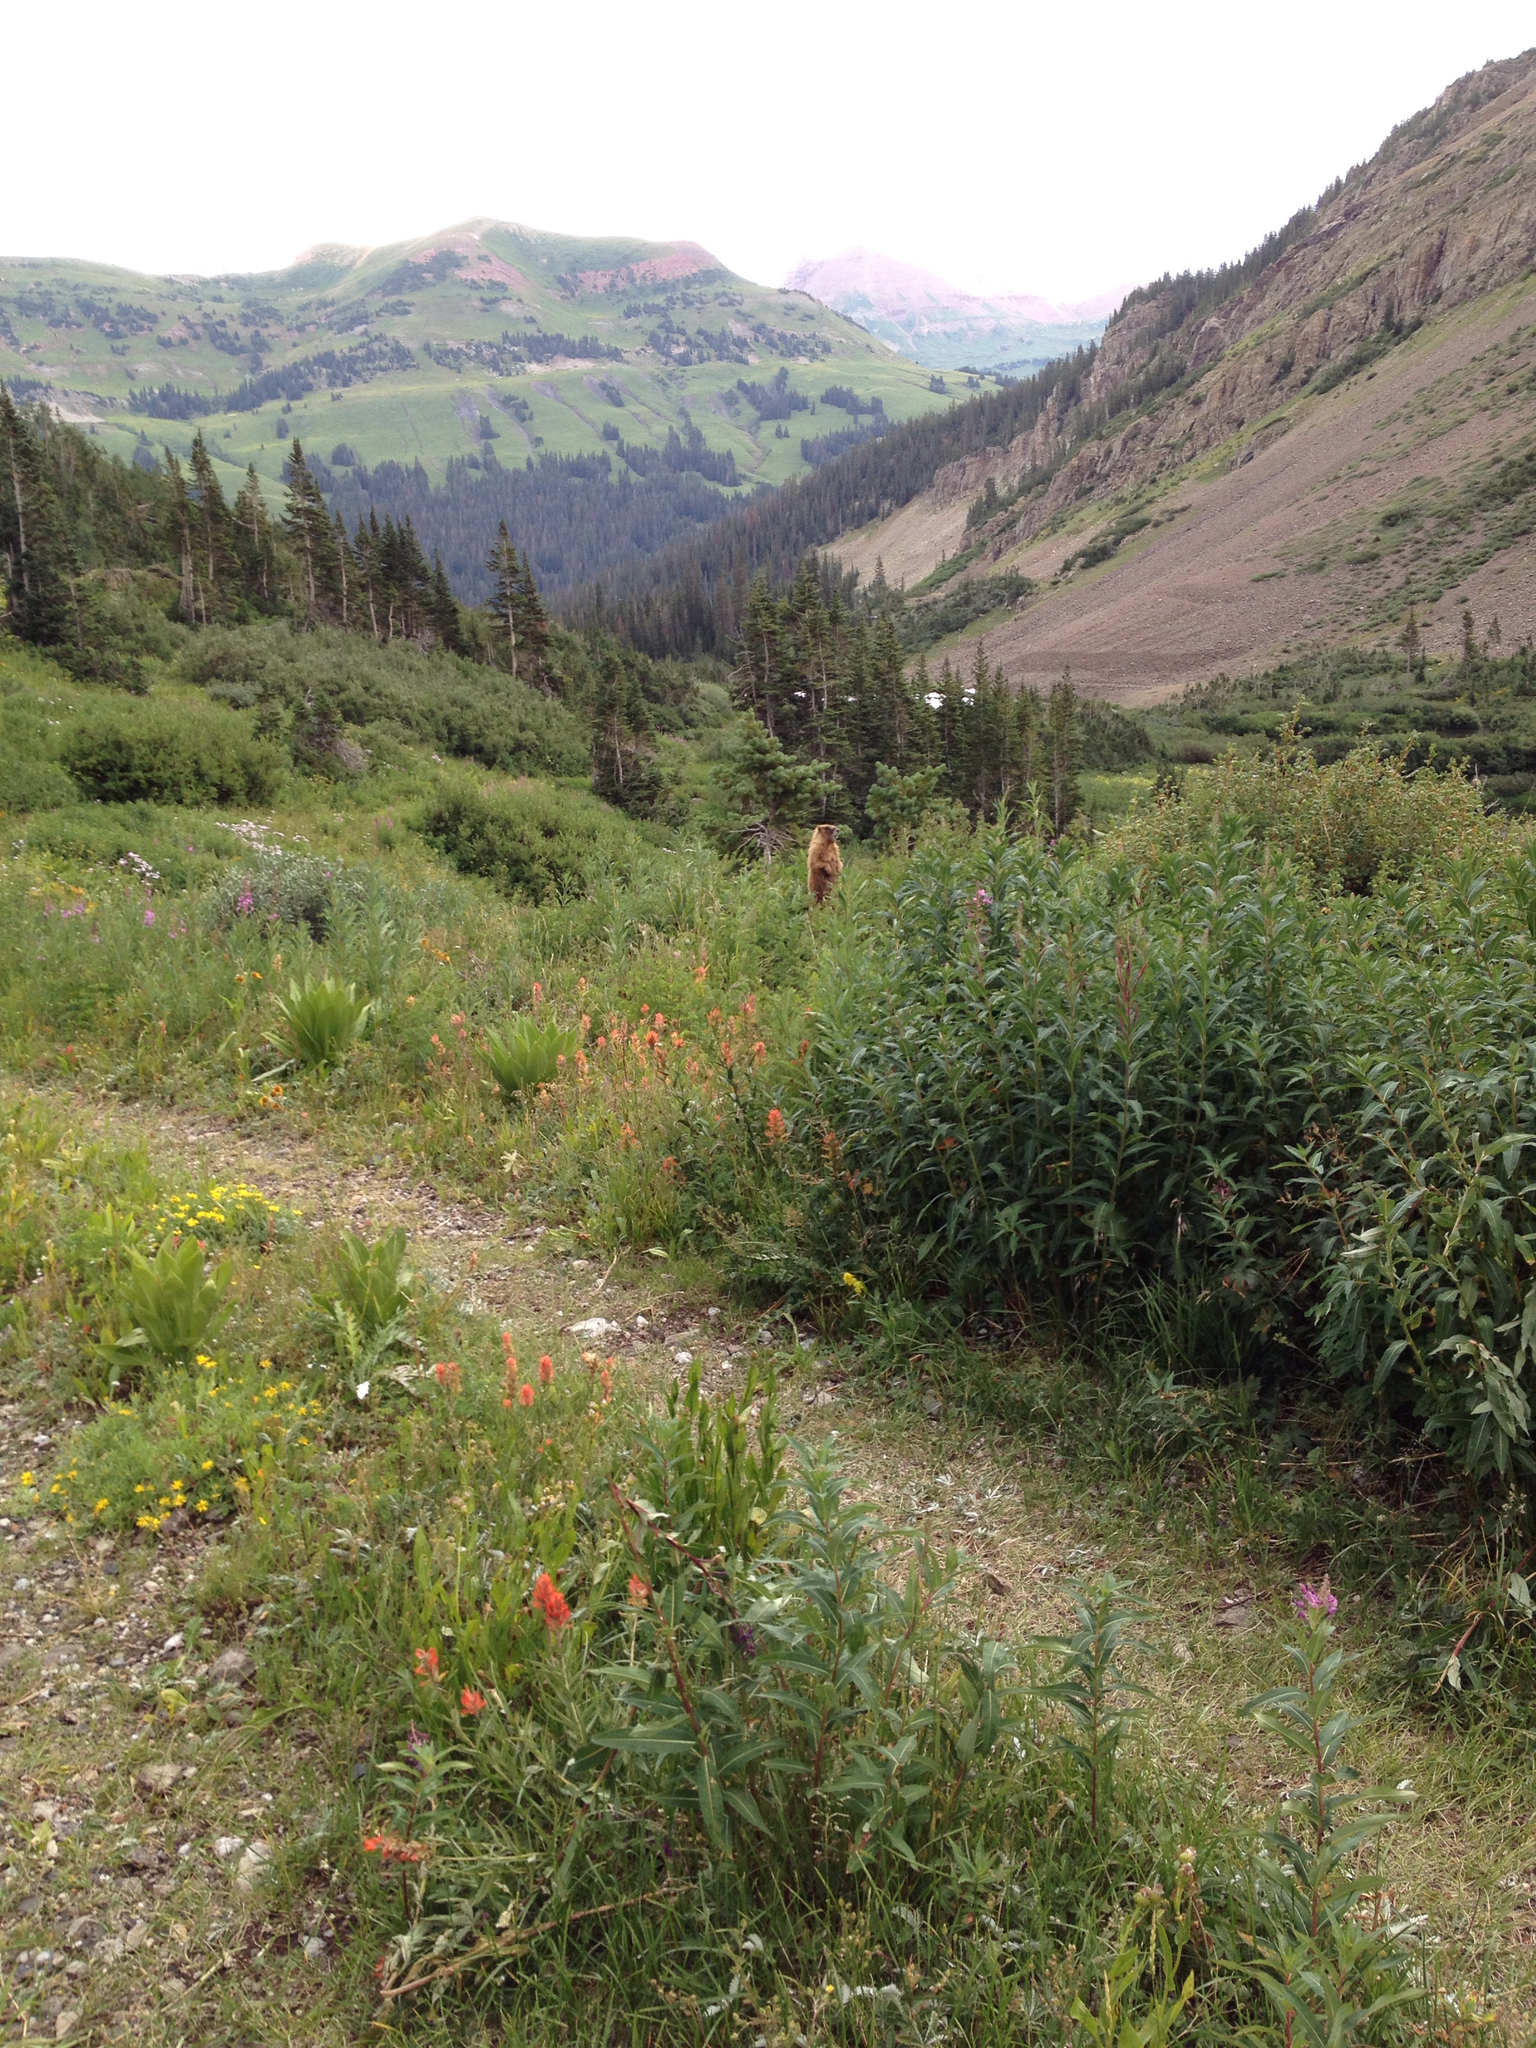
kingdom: Animalia
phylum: Chordata
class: Mammalia
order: Rodentia
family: Sciuridae
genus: Marmota
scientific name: Marmota flaviventris
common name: Yellow-bellied marmot
